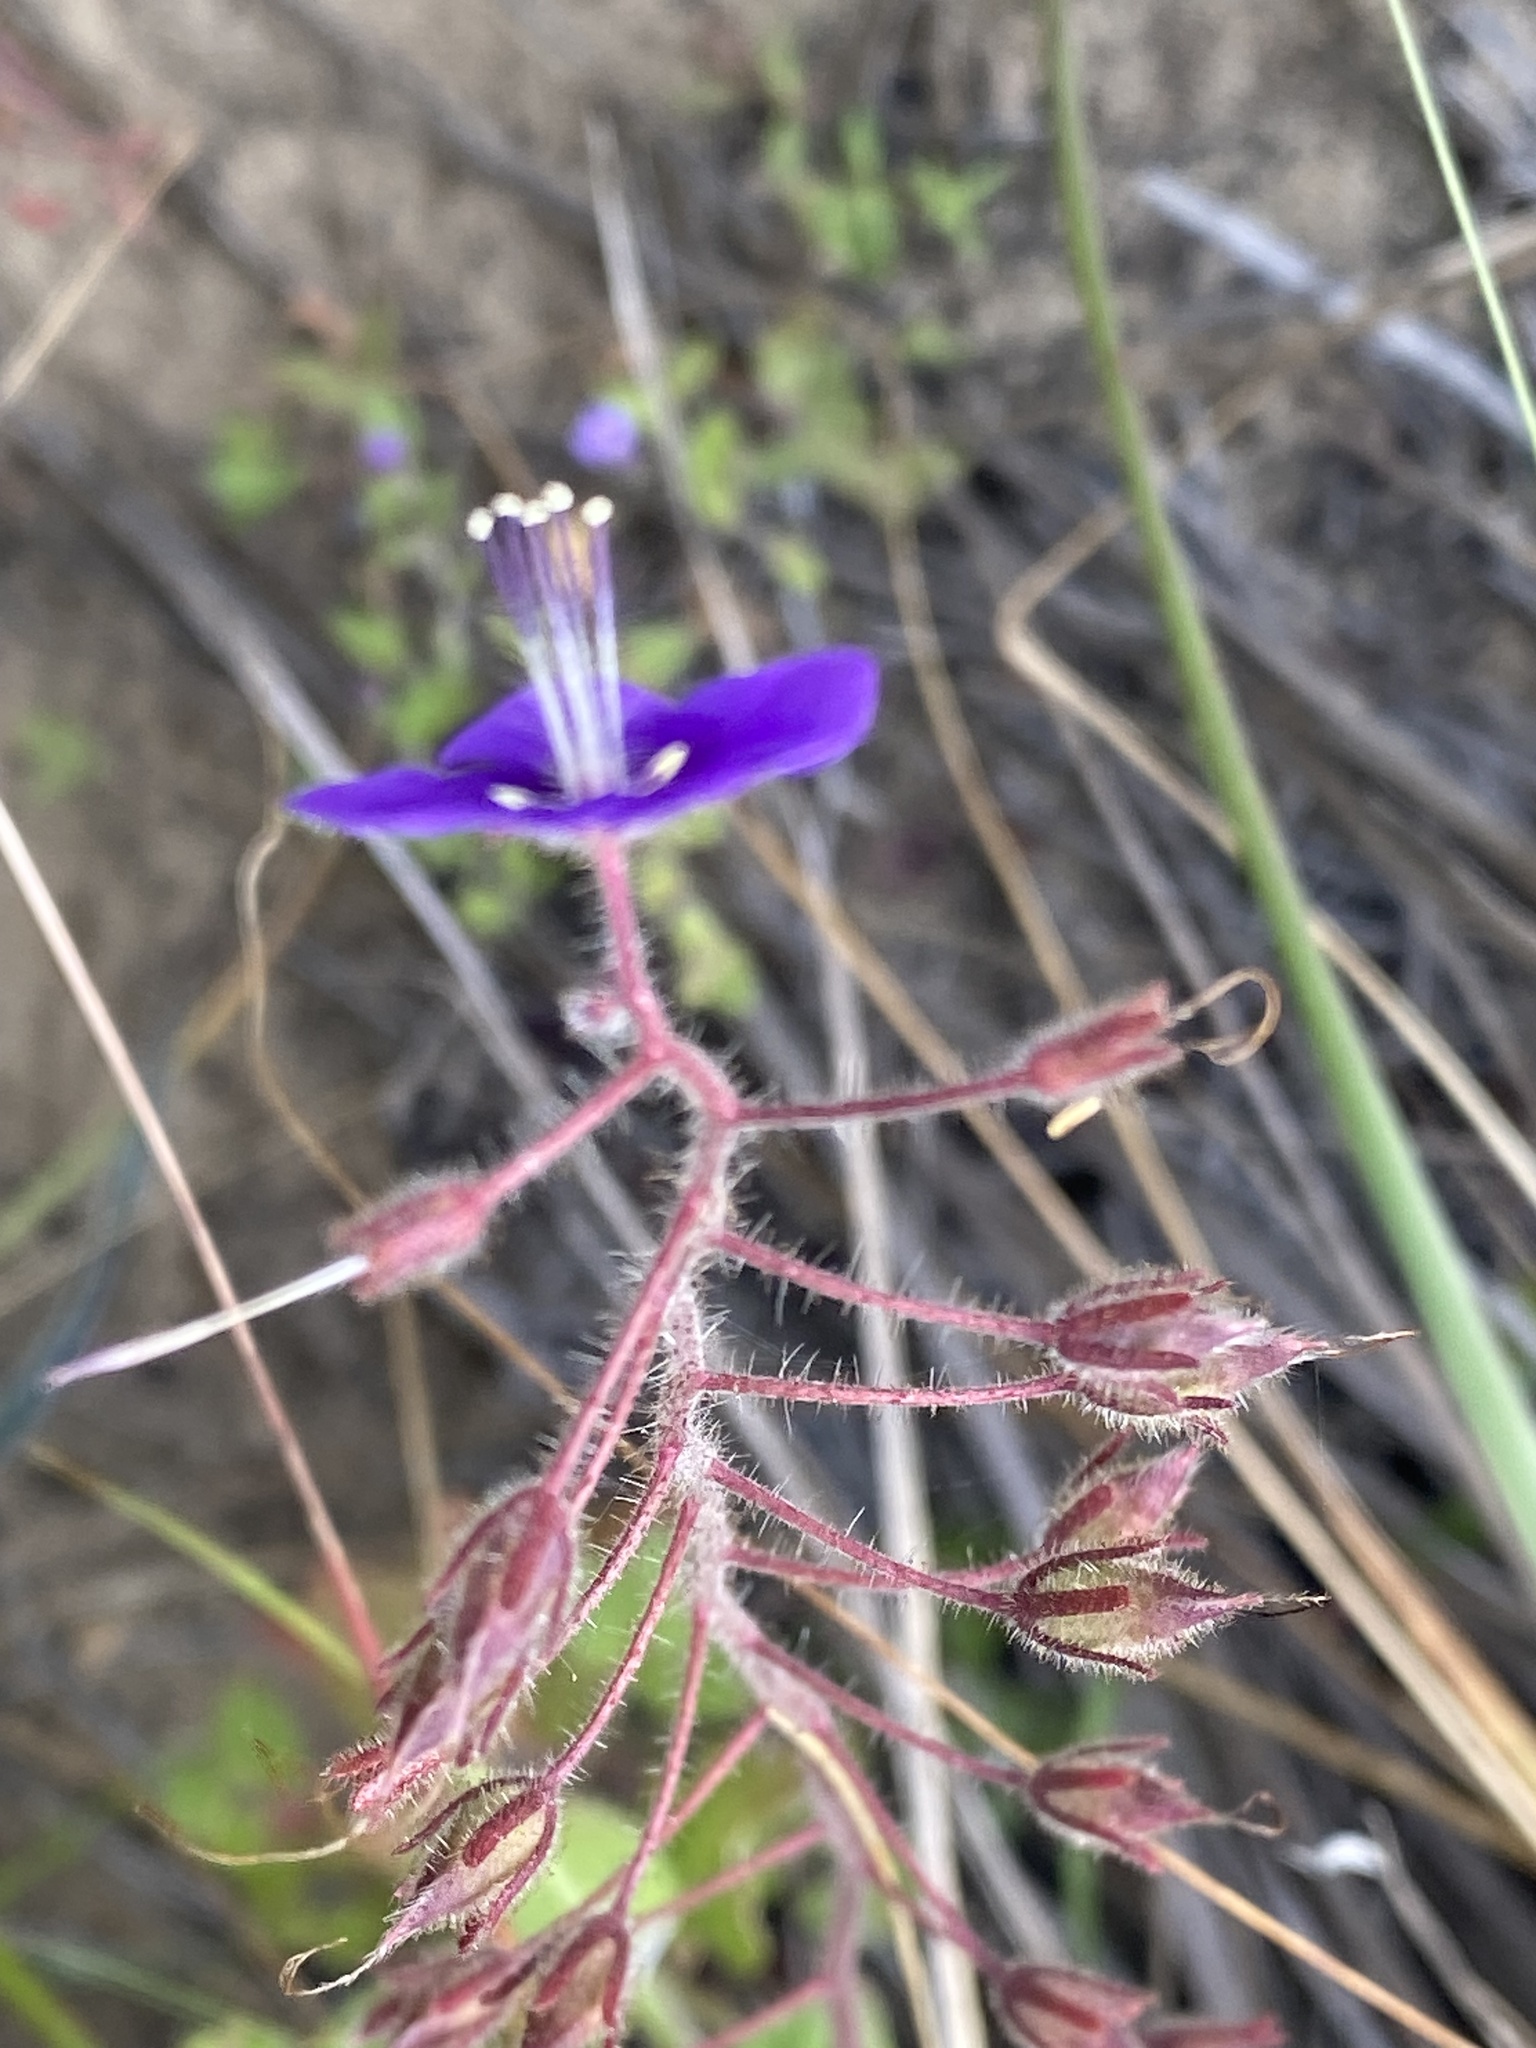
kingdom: Plantae
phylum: Tracheophyta
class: Magnoliopsida
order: Boraginales
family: Hydrophyllaceae
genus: Phacelia
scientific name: Phacelia parryi
